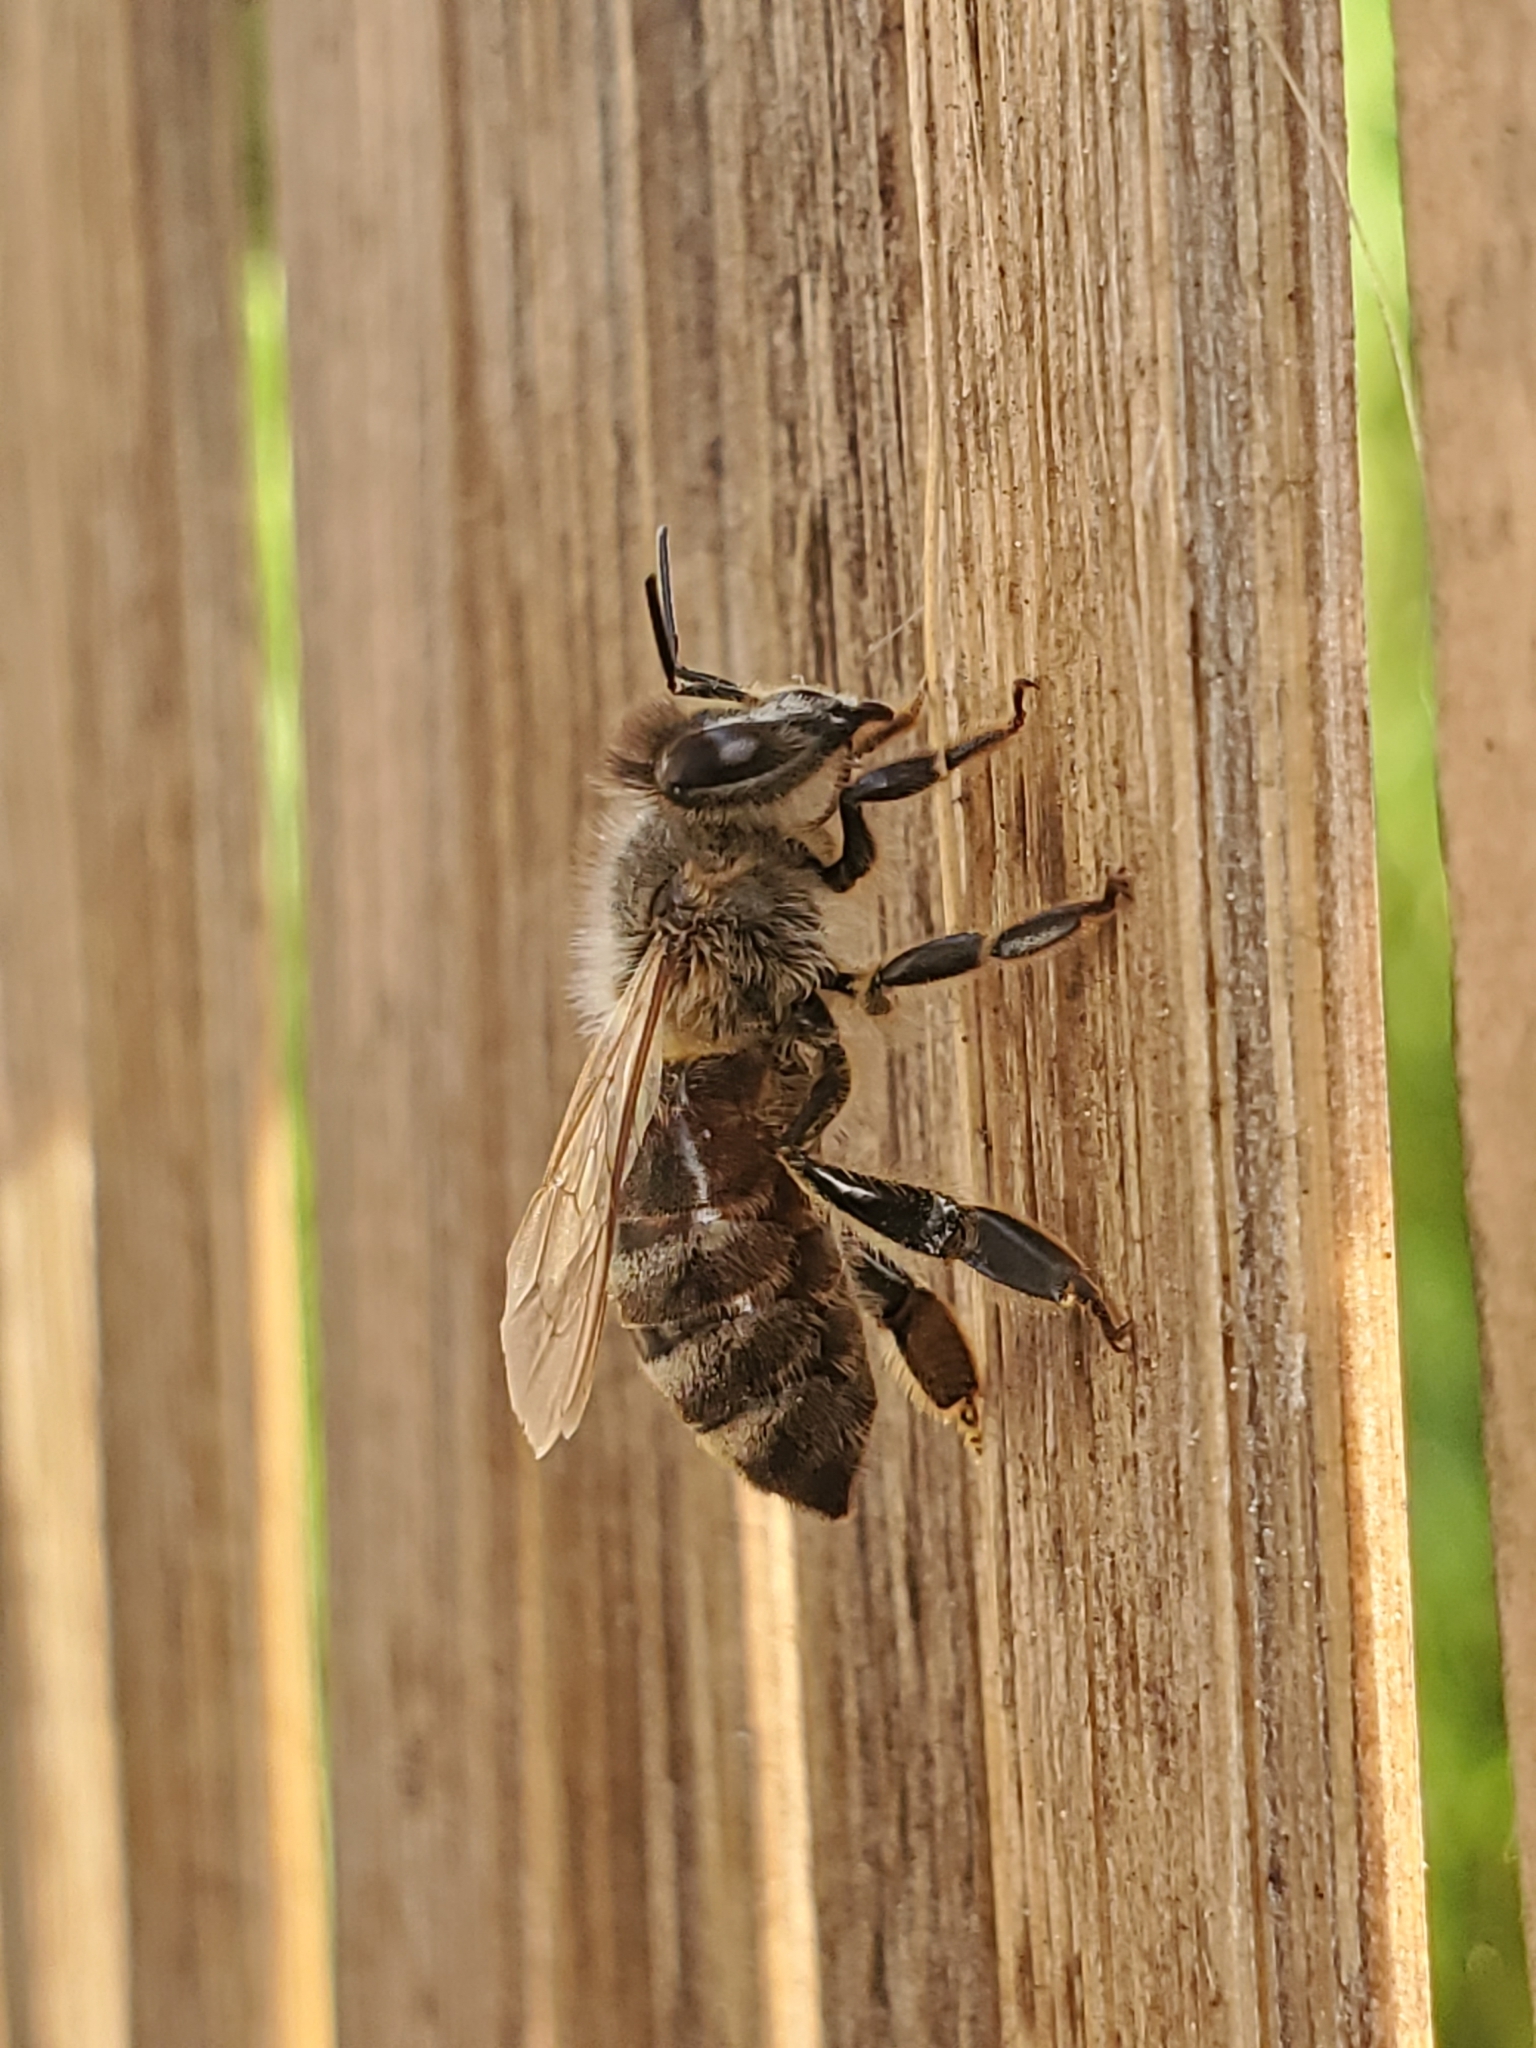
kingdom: Animalia
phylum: Arthropoda
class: Insecta
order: Hymenoptera
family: Apidae
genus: Apis
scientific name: Apis mellifera
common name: Honey bee
